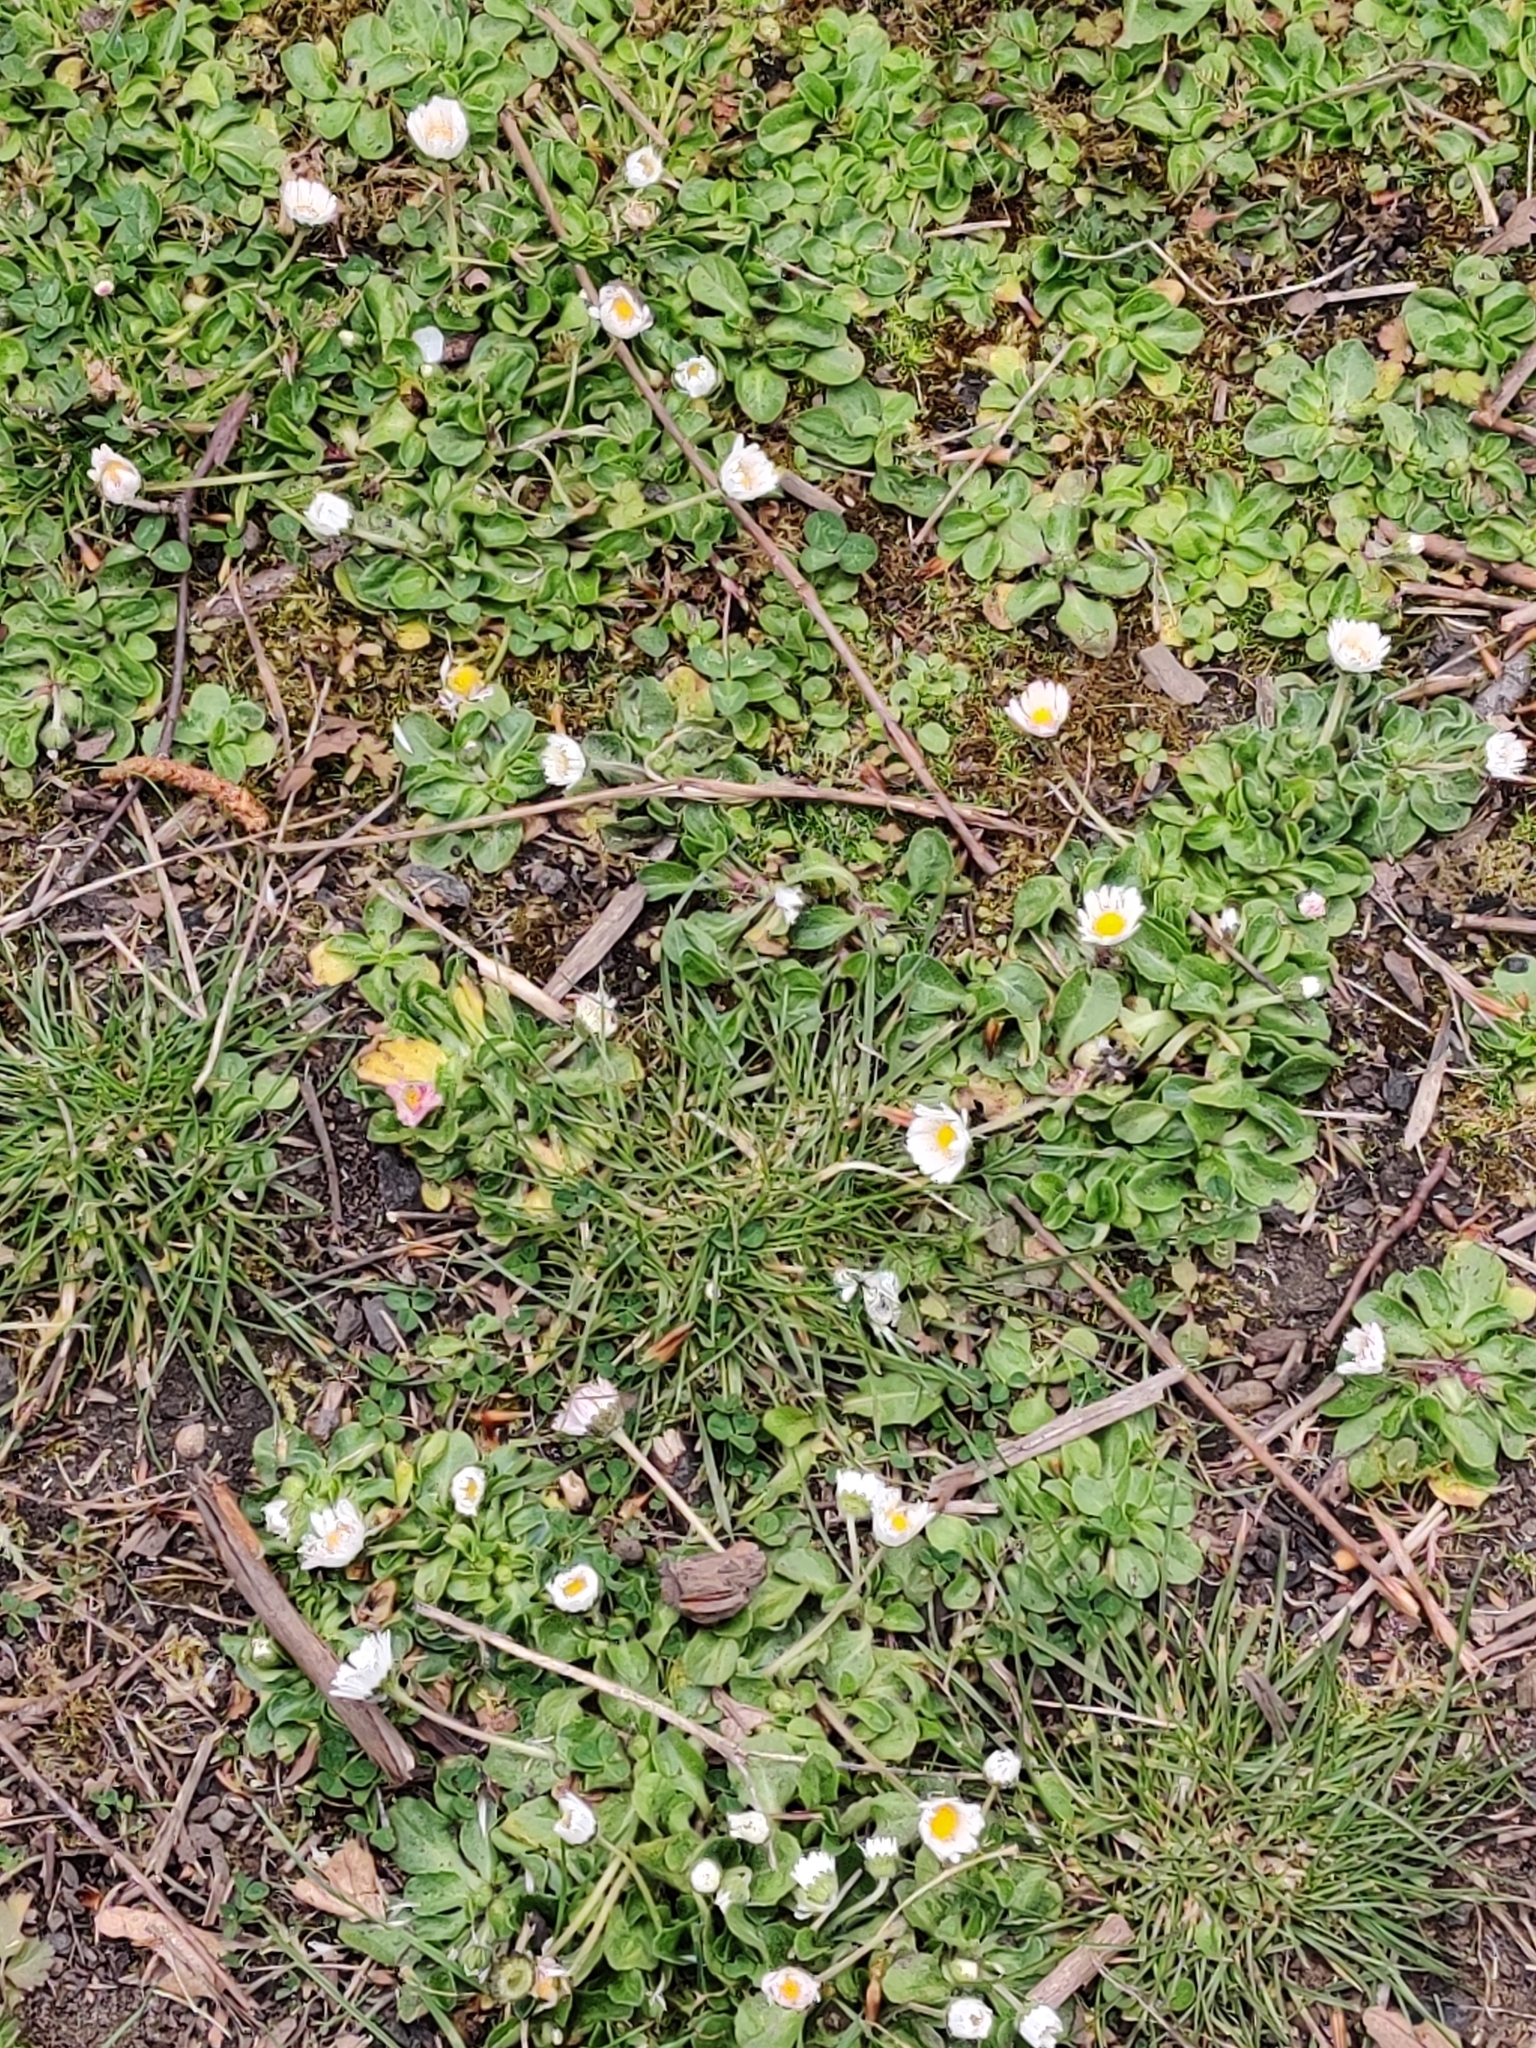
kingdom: Plantae
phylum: Tracheophyta
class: Magnoliopsida
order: Asterales
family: Asteraceae
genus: Bellis
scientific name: Bellis perennis
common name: Lawndaisy
